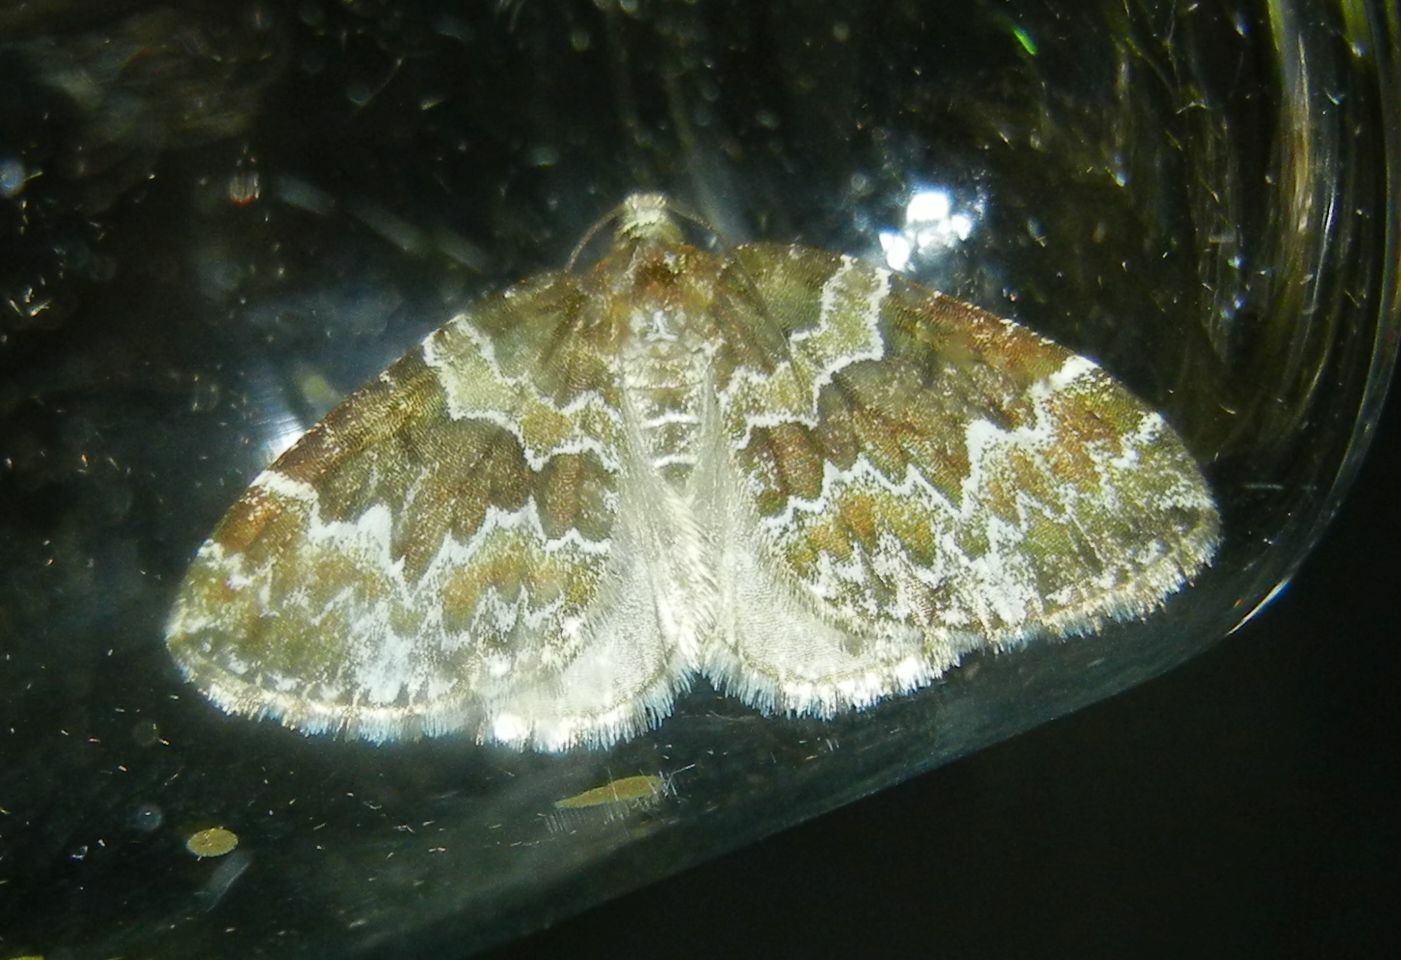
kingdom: Animalia
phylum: Arthropoda
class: Insecta
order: Lepidoptera
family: Geometridae
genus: Electrophaes
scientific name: Electrophaes corylata
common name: Broken-barred carpet
